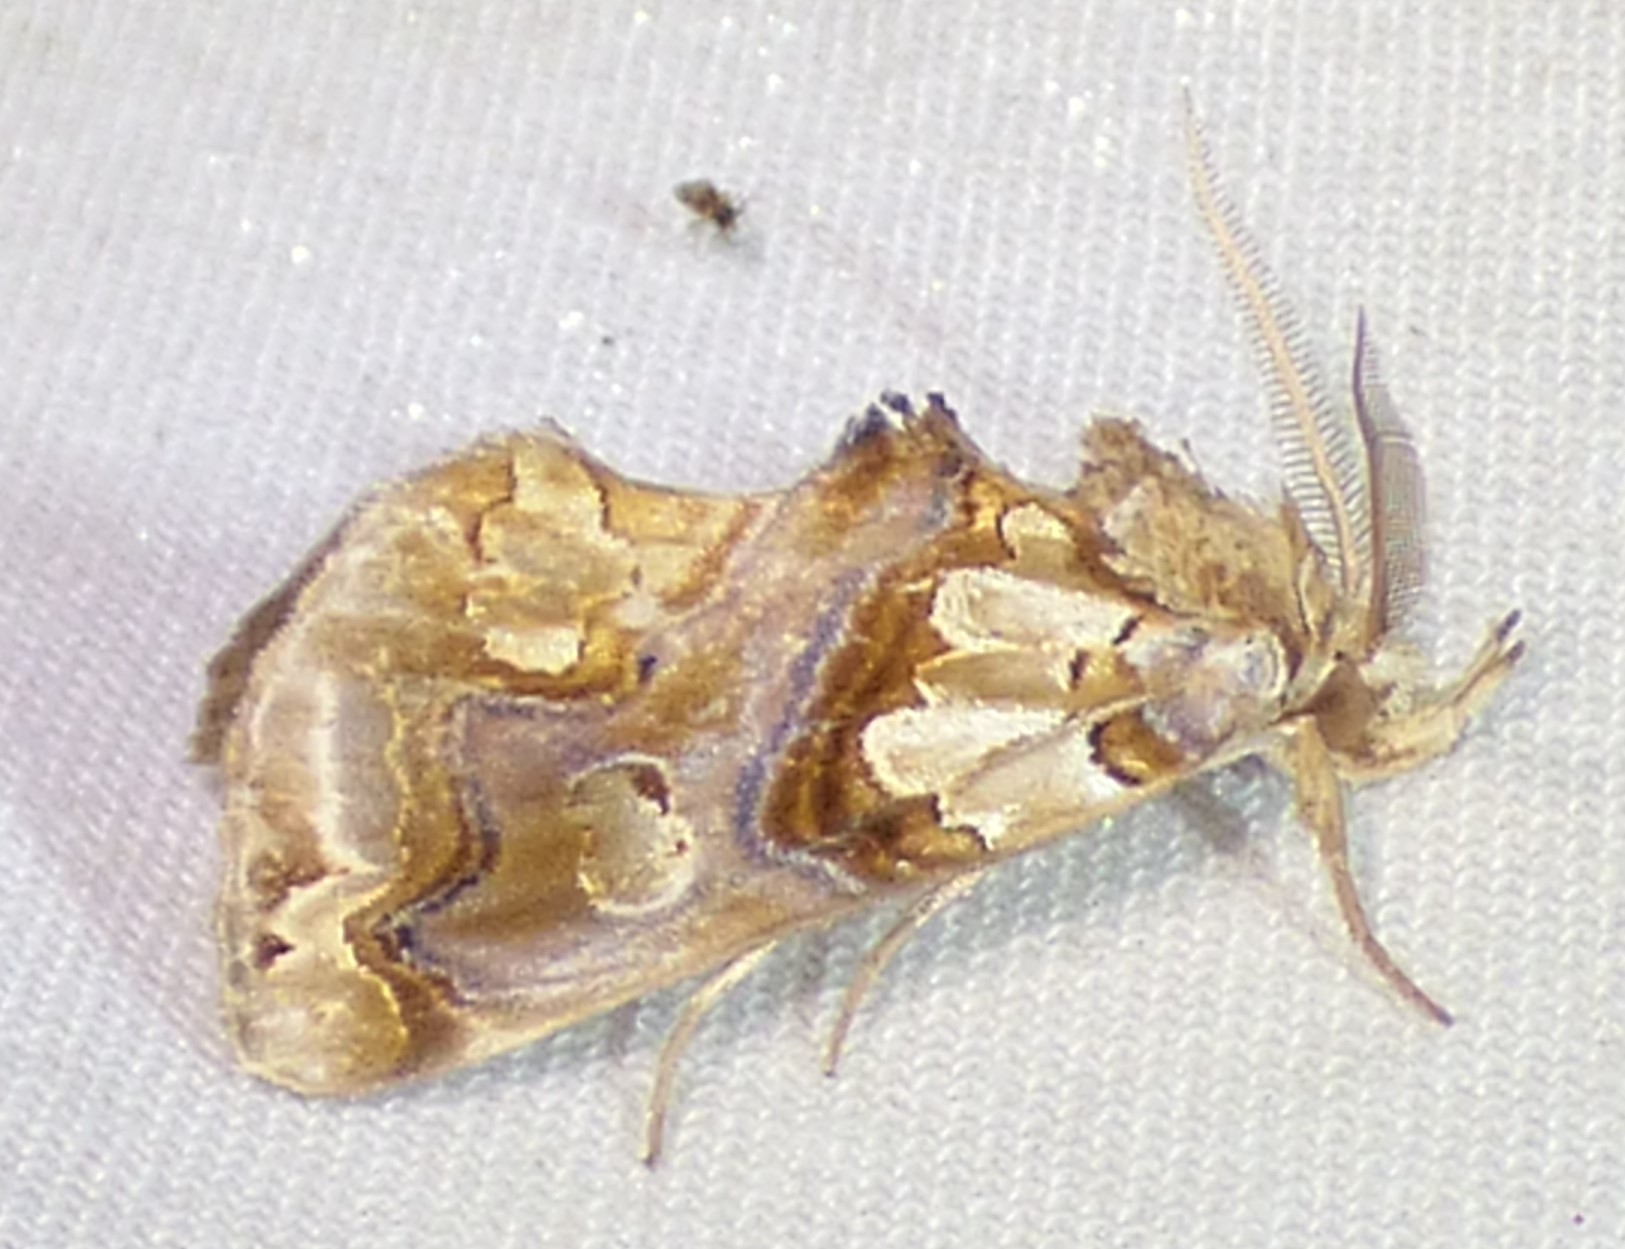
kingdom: Animalia
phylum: Arthropoda
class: Insecta
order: Lepidoptera
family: Erebidae
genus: Plusiodonta
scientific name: Plusiodonta compressipalpis
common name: Moonseed moth
